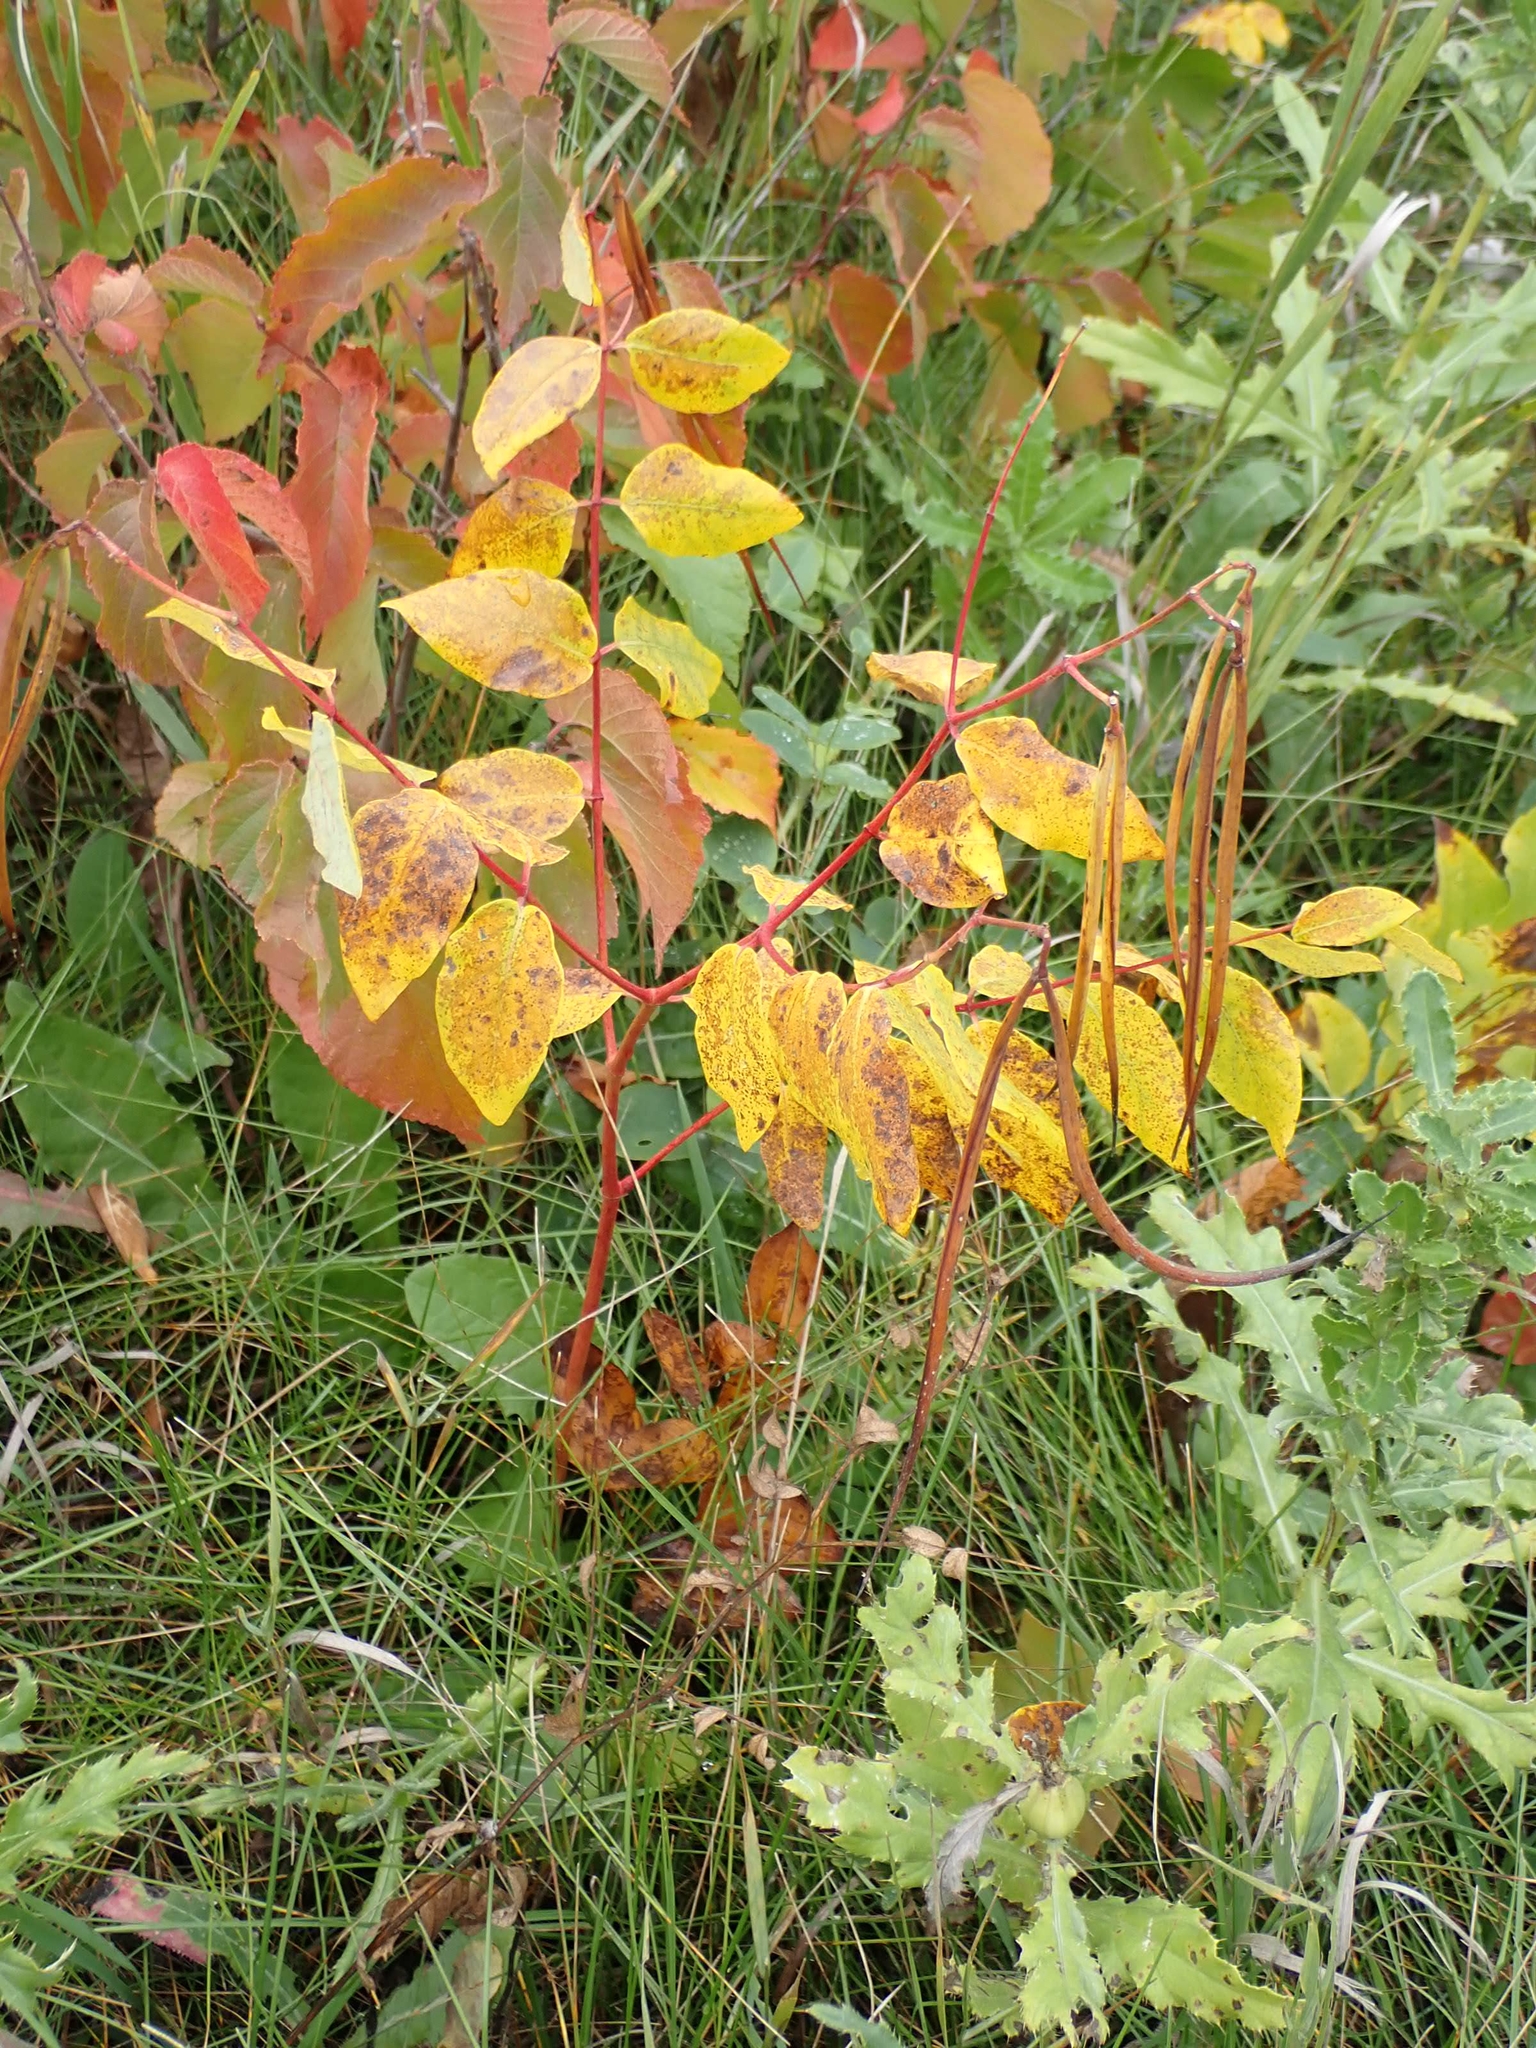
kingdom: Plantae
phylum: Tracheophyta
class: Magnoliopsida
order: Gentianales
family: Apocynaceae
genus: Apocynum
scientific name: Apocynum androsaemifolium
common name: Spreading dogbane
